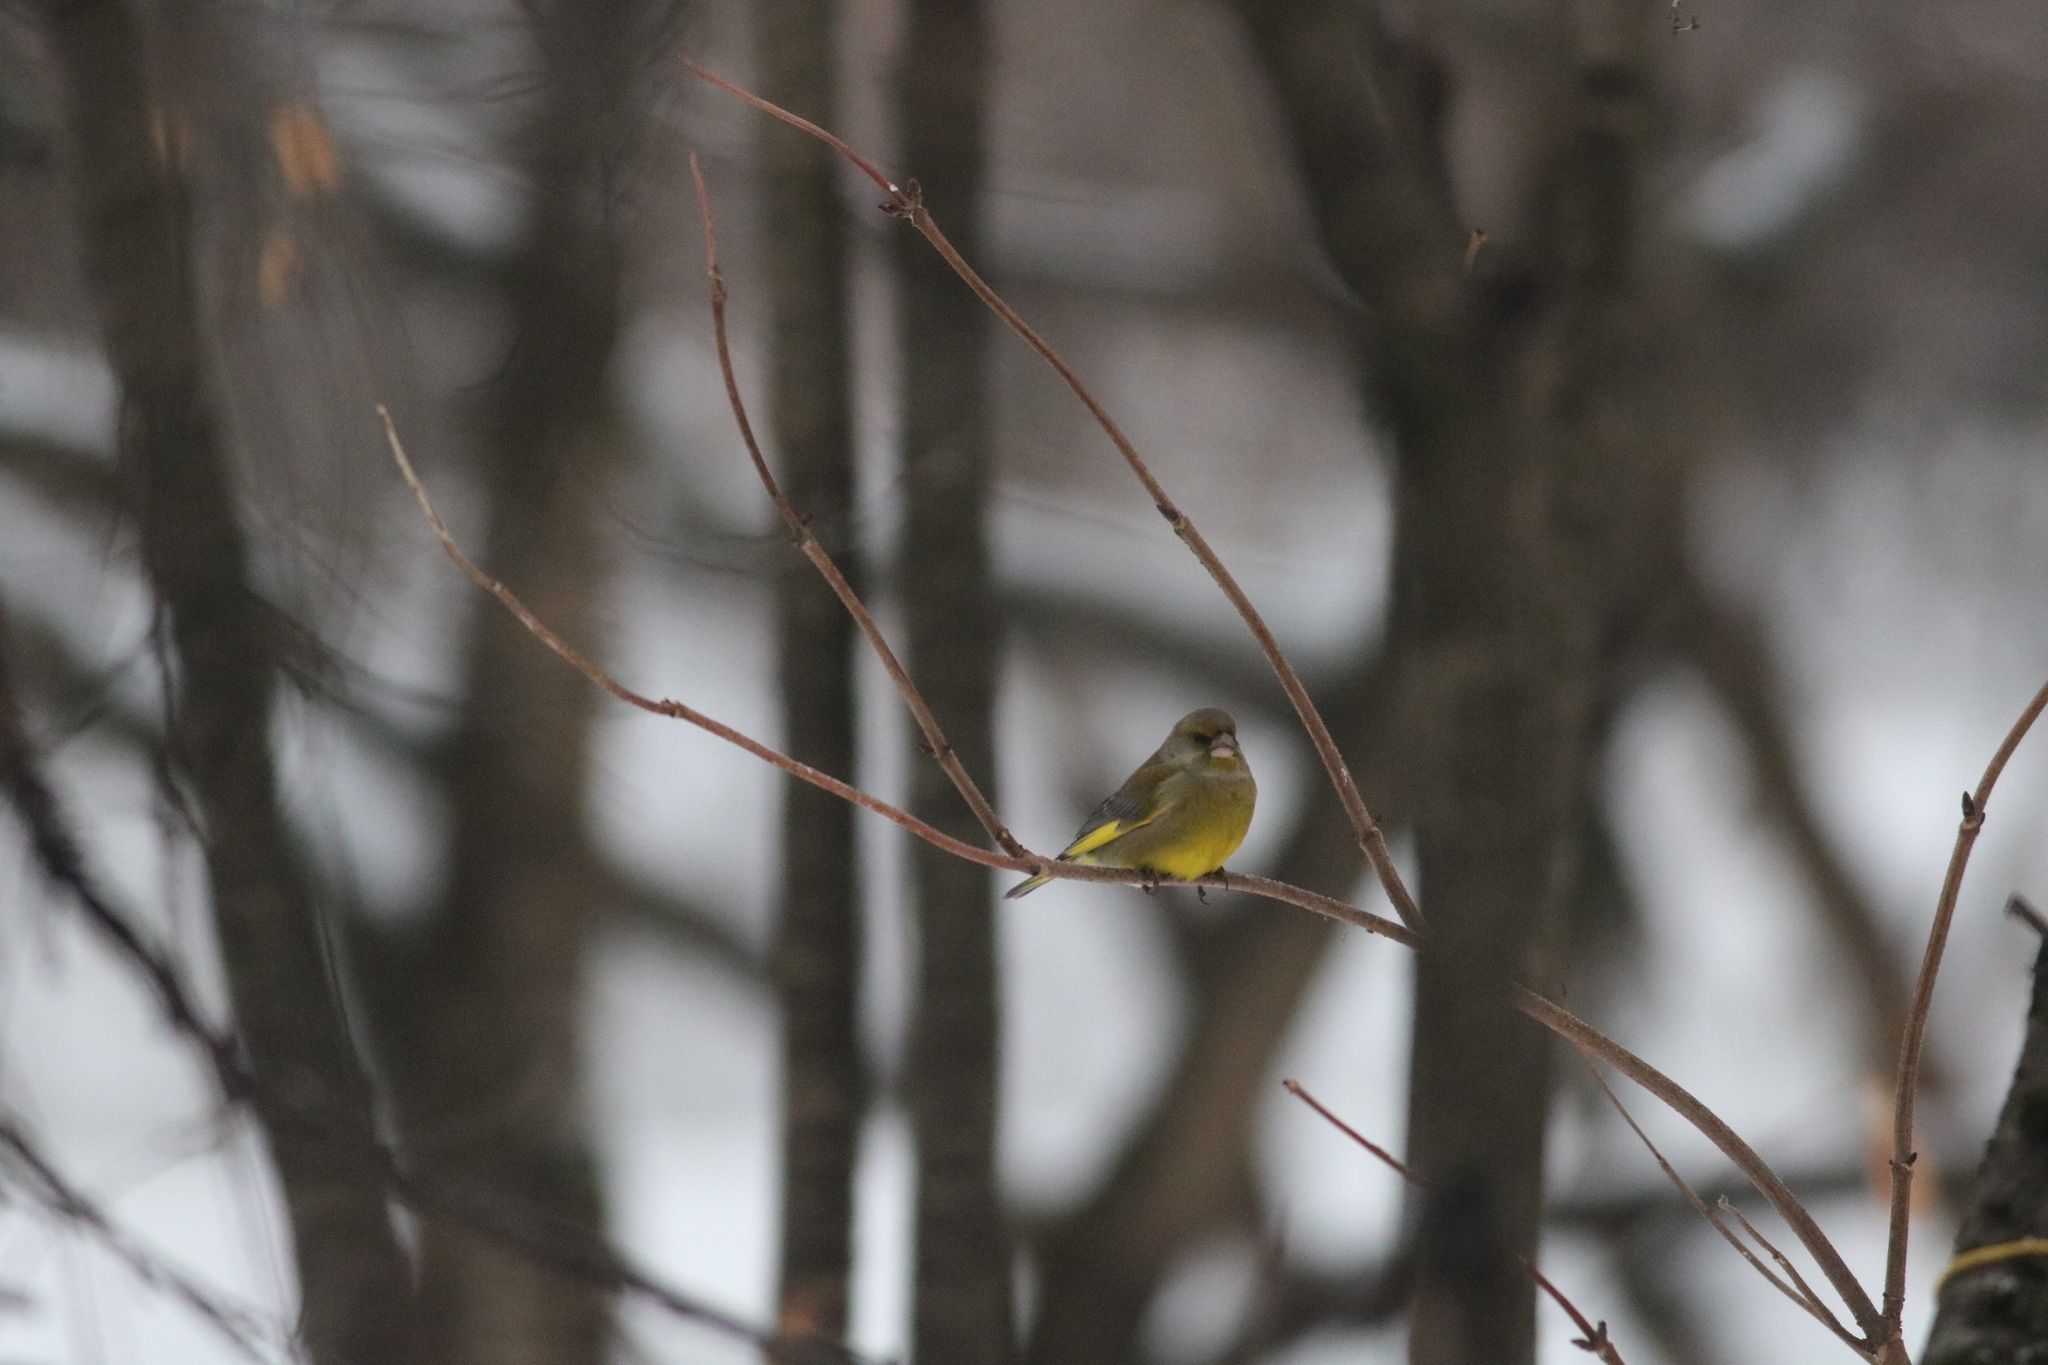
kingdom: Plantae
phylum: Tracheophyta
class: Liliopsida
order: Poales
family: Poaceae
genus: Chloris
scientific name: Chloris chloris
